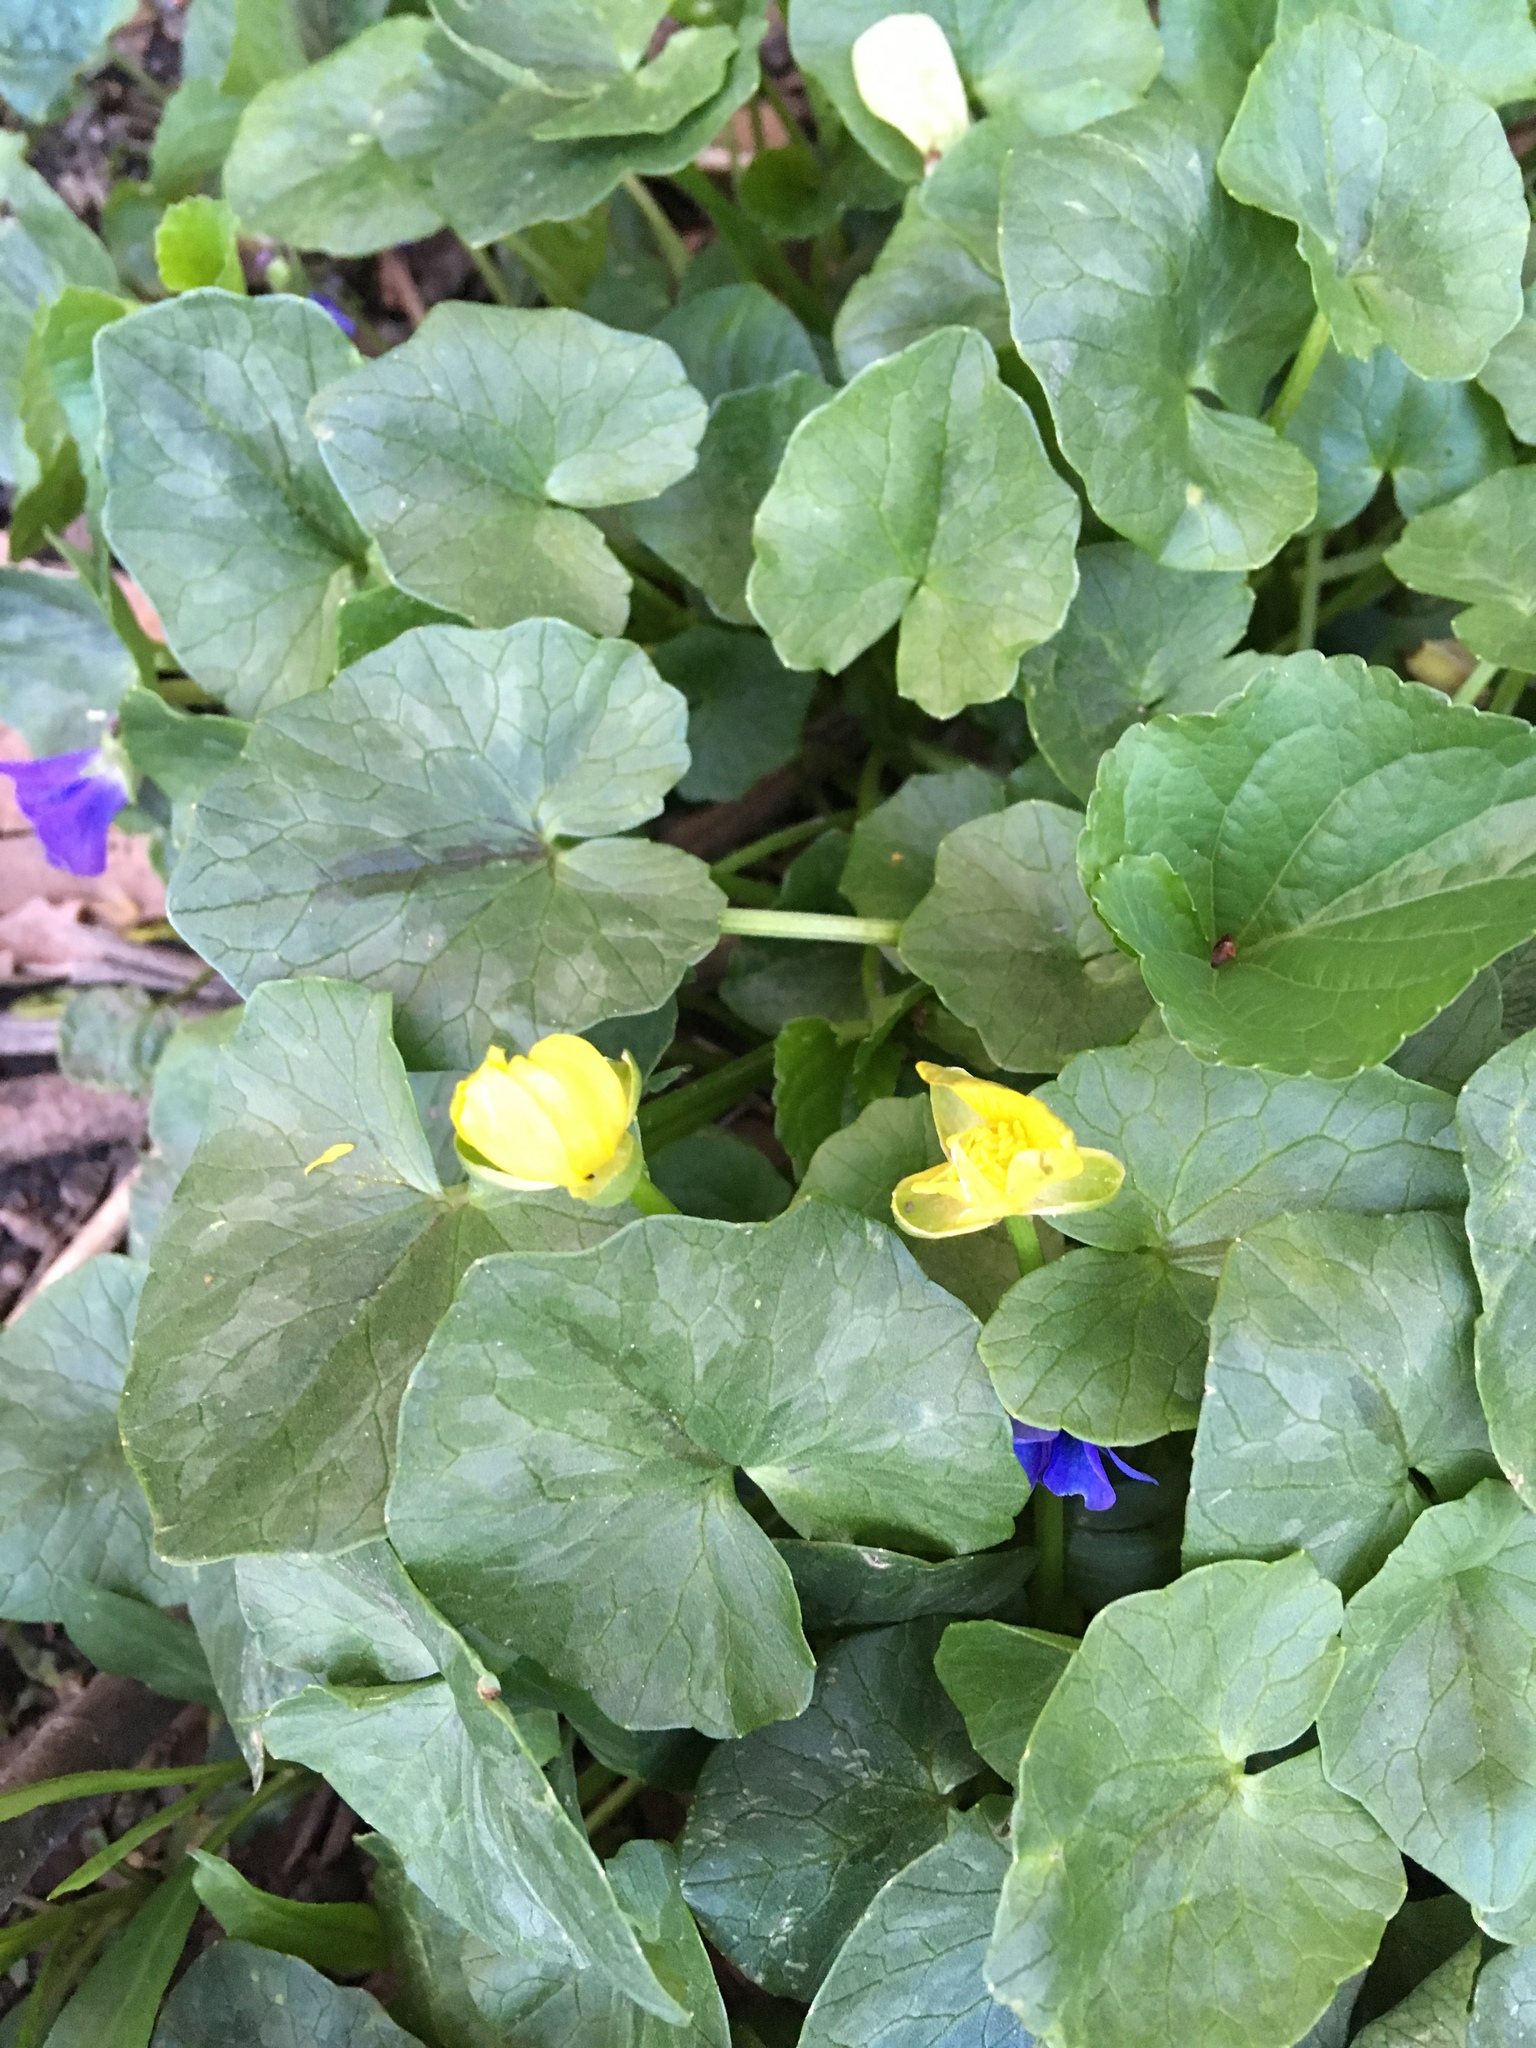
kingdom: Plantae
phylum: Tracheophyta
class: Magnoliopsida
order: Ranunculales
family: Ranunculaceae
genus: Ficaria
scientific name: Ficaria verna
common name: Lesser celandine
